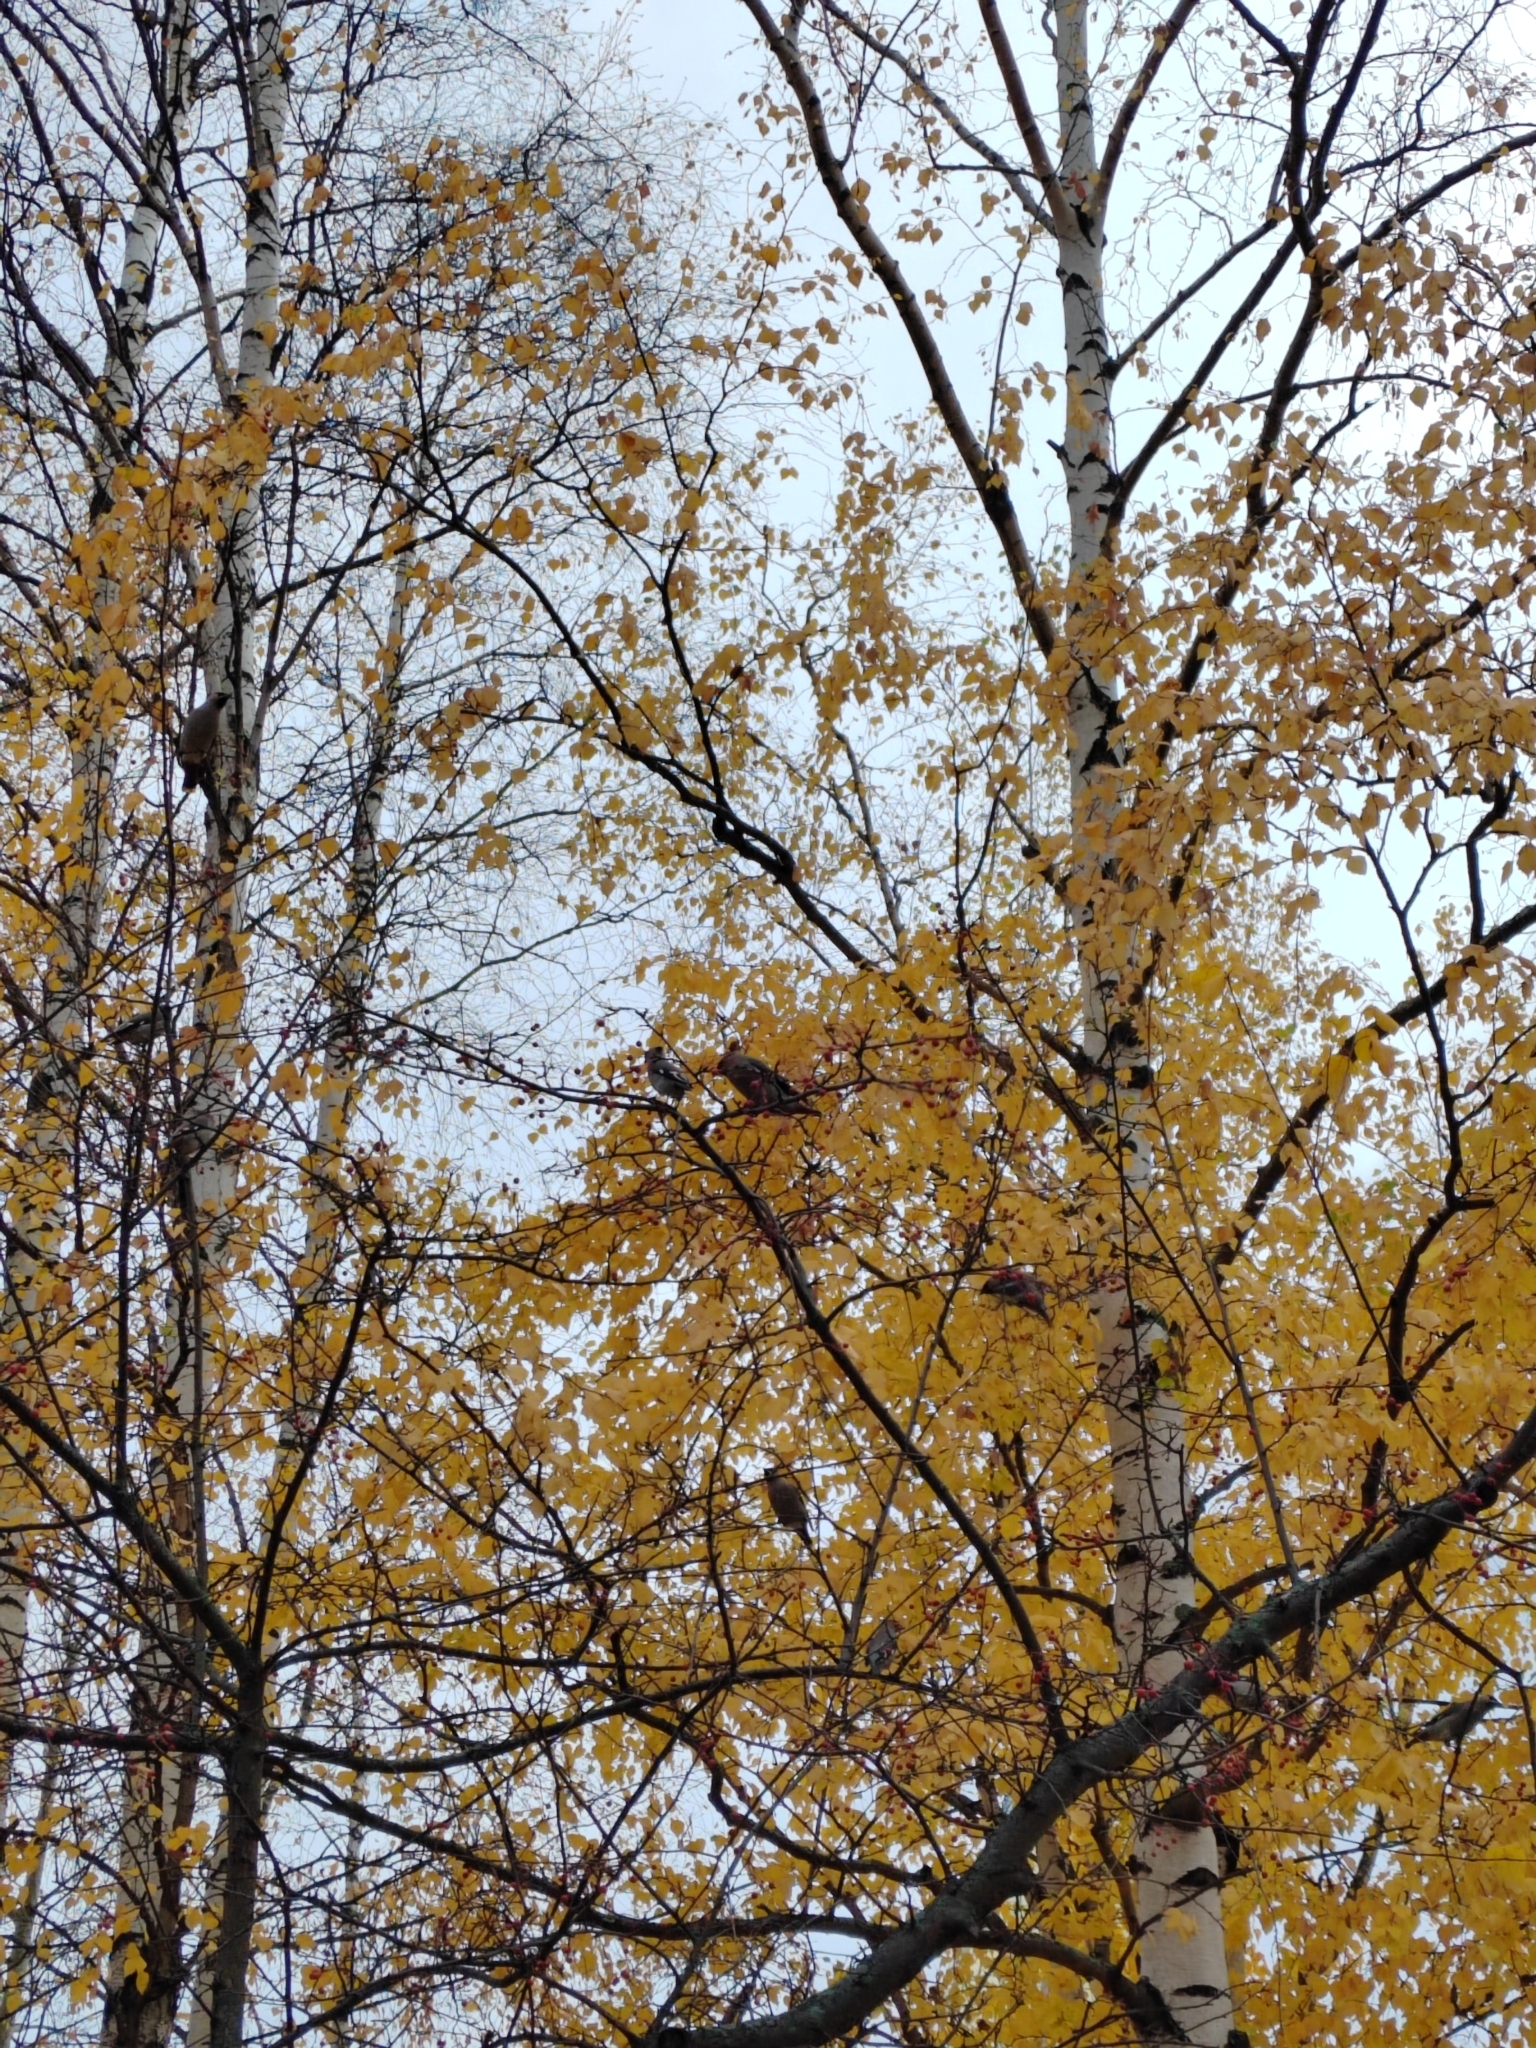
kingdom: Animalia
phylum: Chordata
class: Aves
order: Passeriformes
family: Bombycillidae
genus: Bombycilla
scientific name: Bombycilla garrulus
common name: Bohemian waxwing
